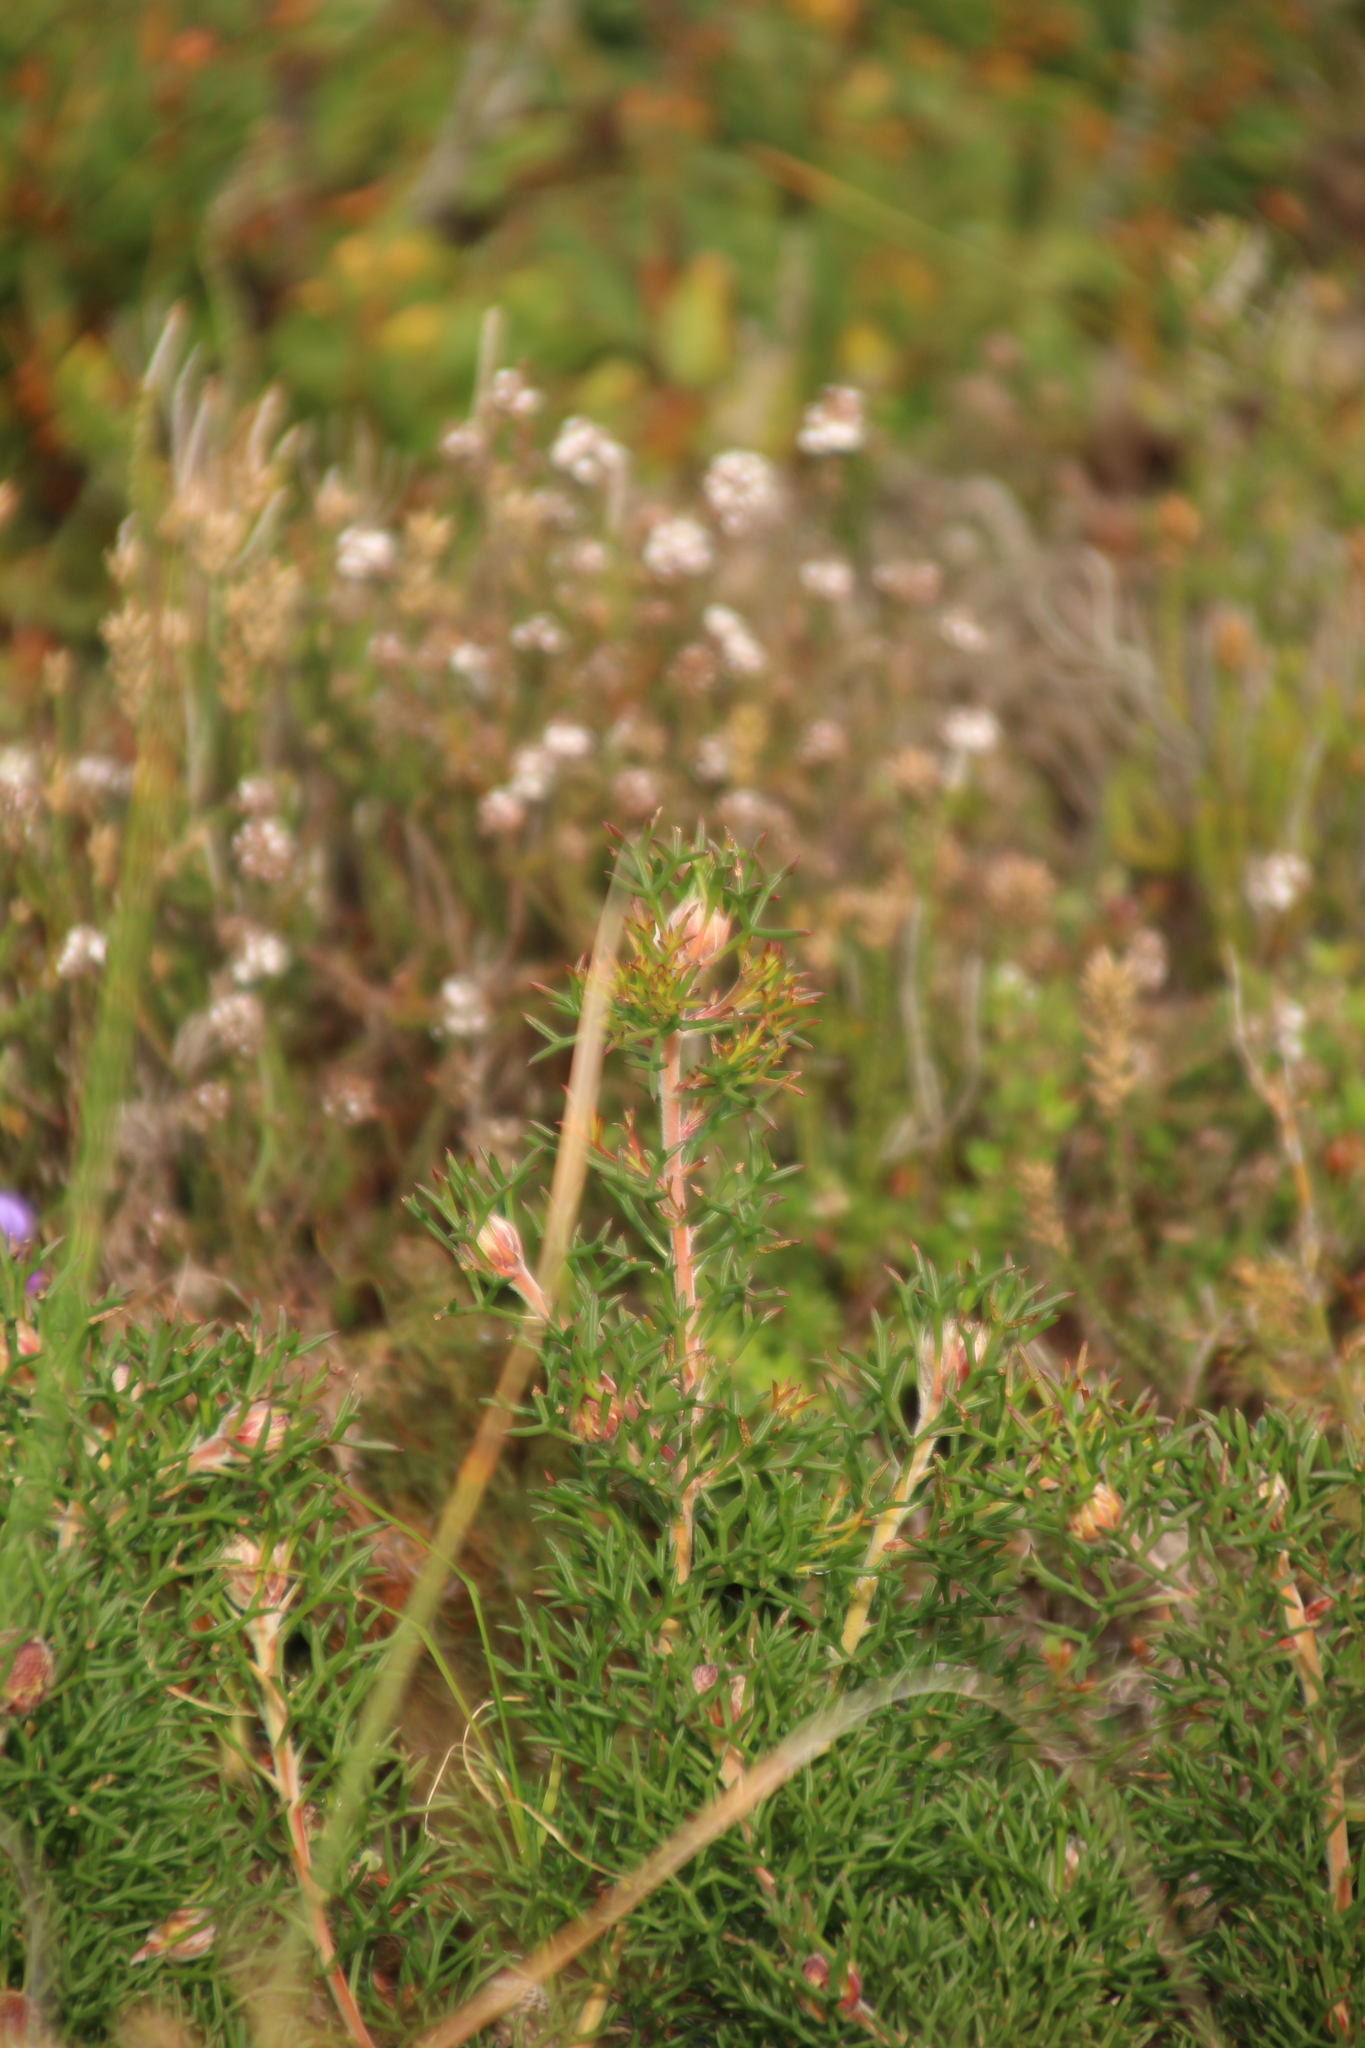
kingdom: Plantae
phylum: Tracheophyta
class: Magnoliopsida
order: Proteales
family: Proteaceae
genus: Isopogon
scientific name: Isopogon formosus
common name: Rose-coneflower
